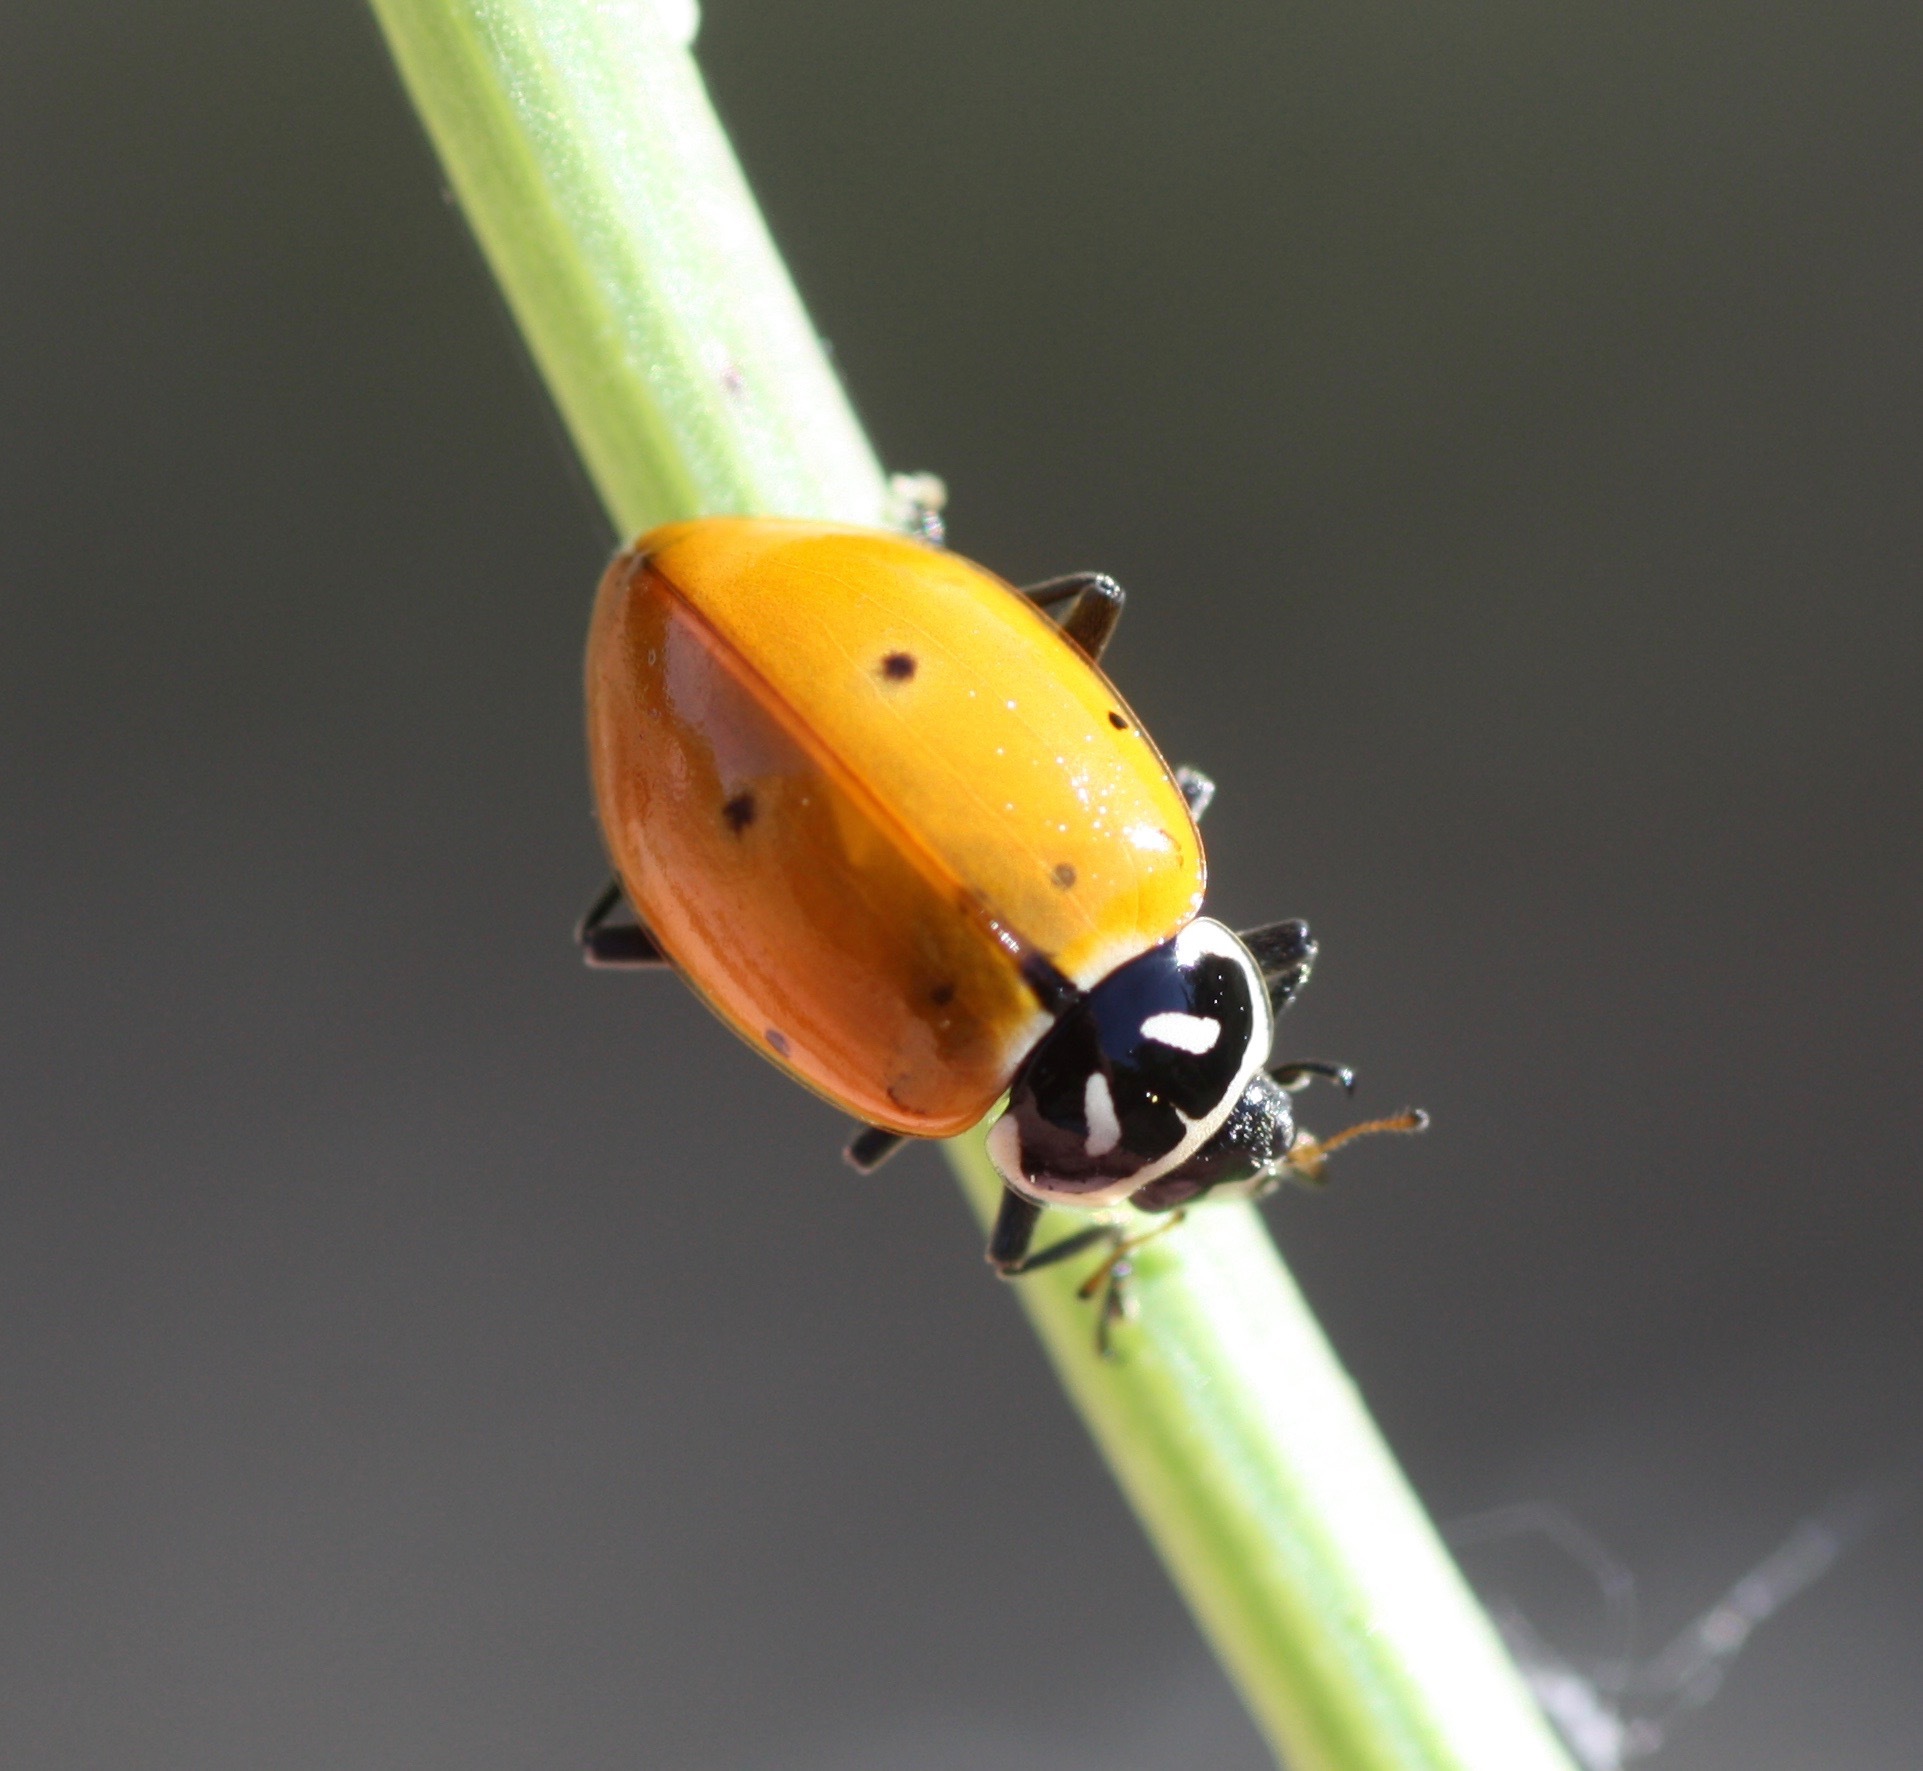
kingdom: Animalia
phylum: Arthropoda
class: Insecta
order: Coleoptera
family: Coccinellidae
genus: Hippodamia
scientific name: Hippodamia convergens
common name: Convergent lady beetle
